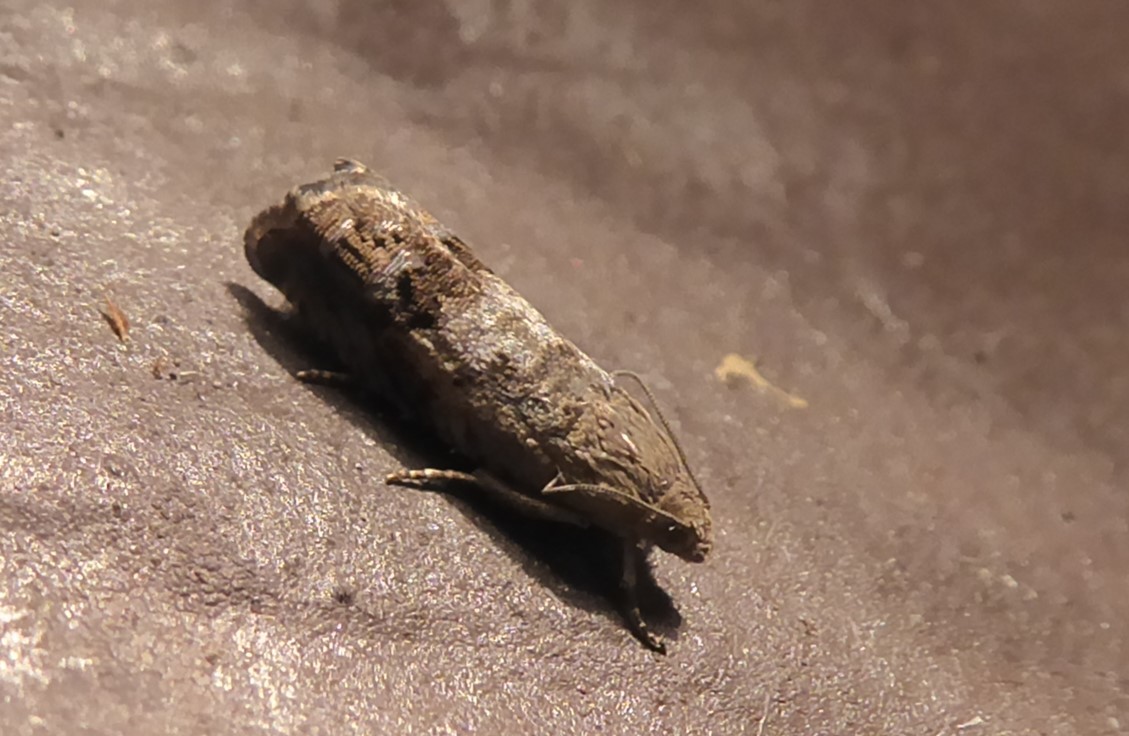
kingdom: Animalia
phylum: Arthropoda
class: Insecta
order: Lepidoptera
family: Tortricidae
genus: Cydia
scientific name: Cydia succedana
